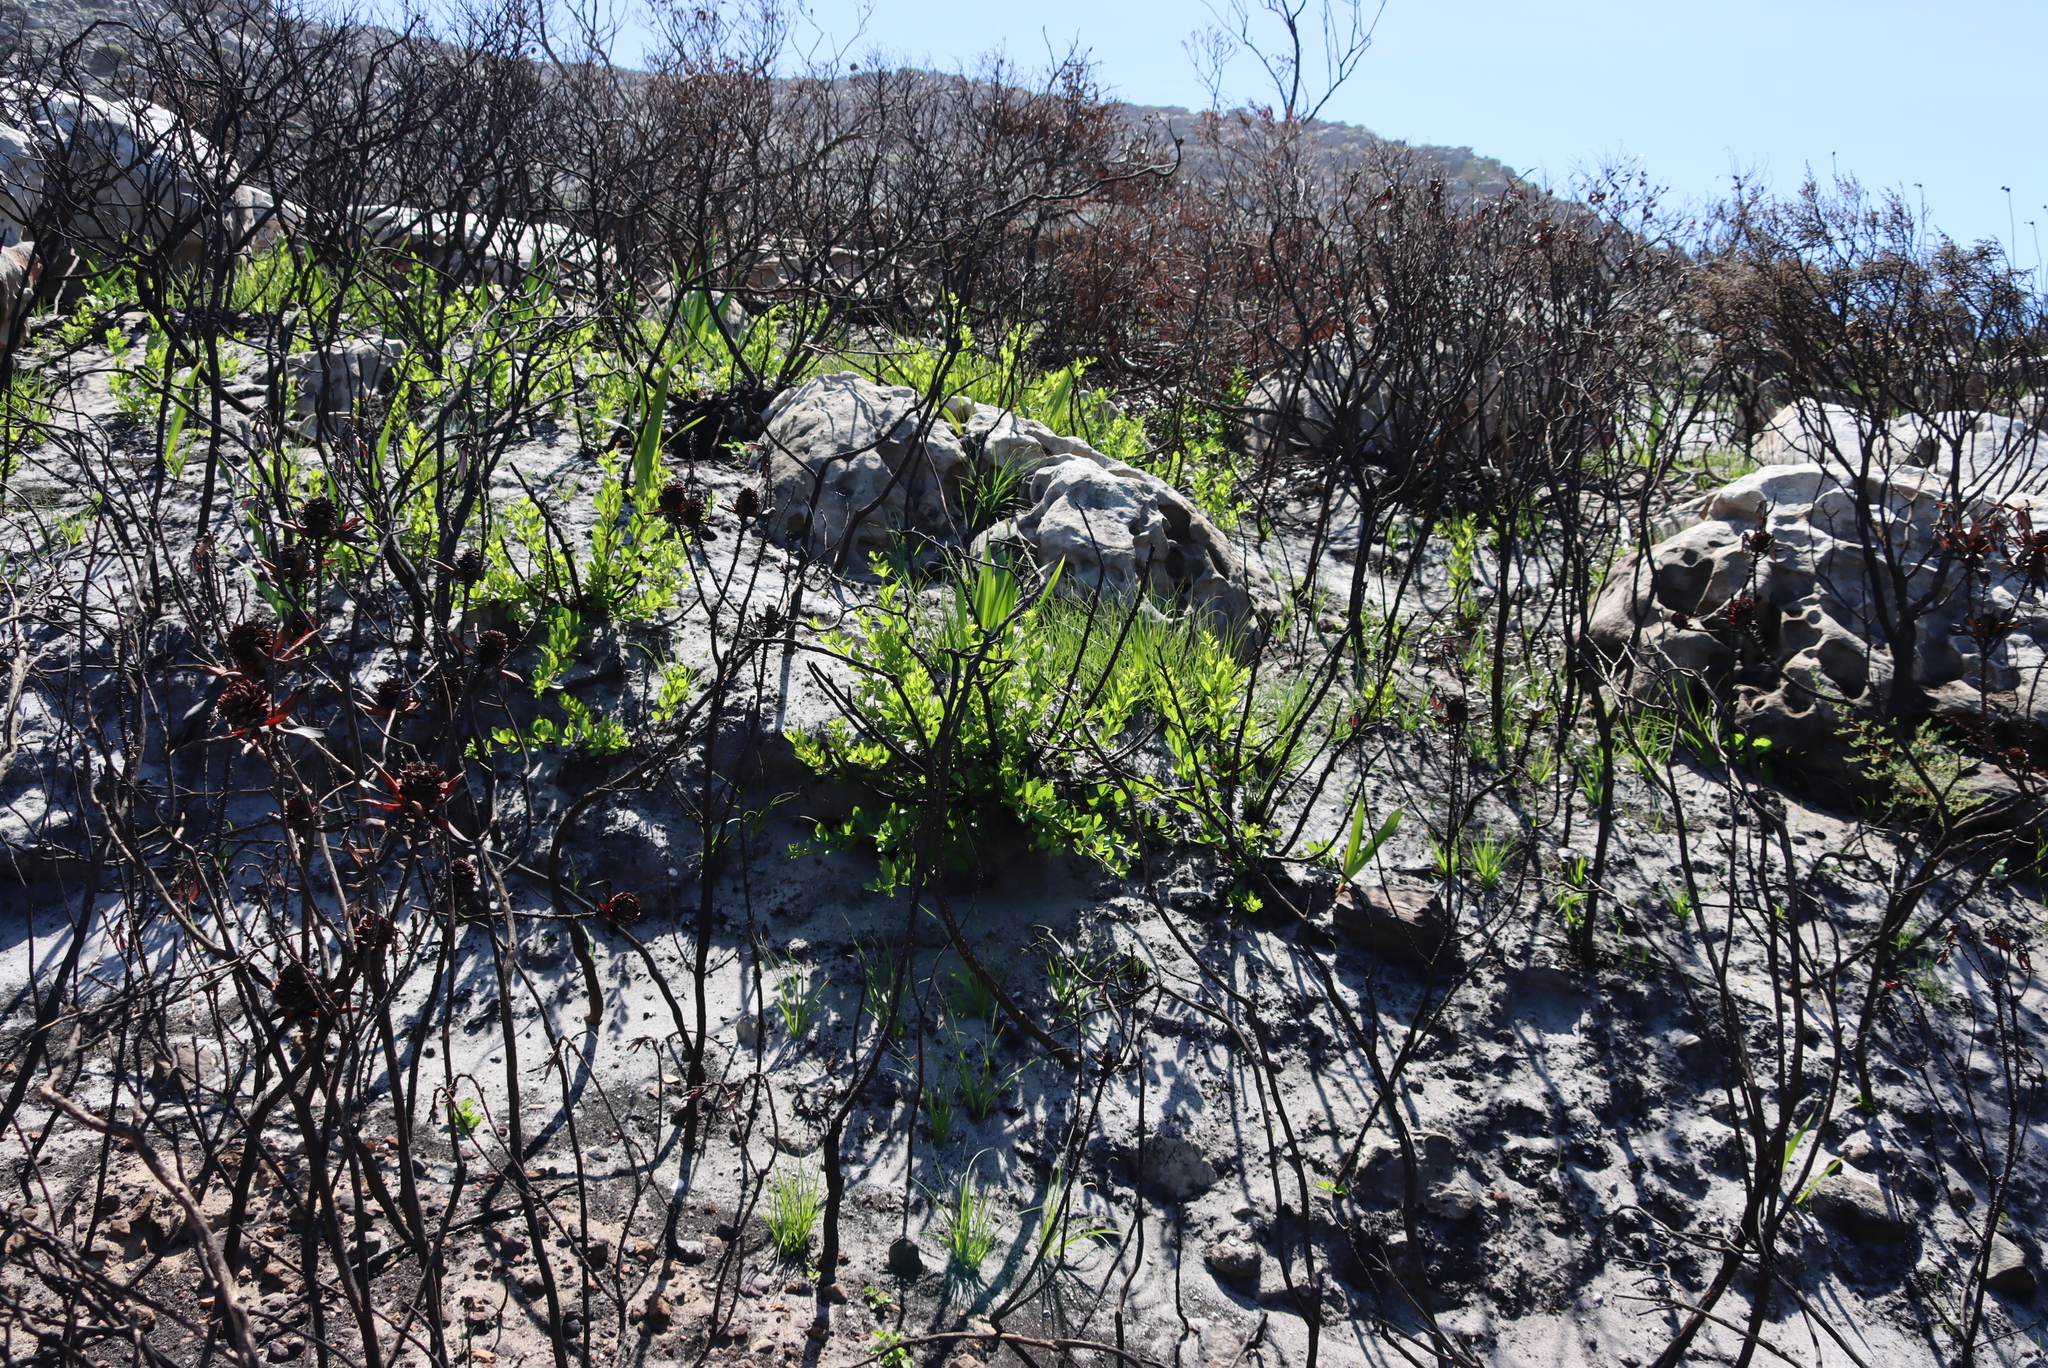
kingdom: Plantae
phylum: Tracheophyta
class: Magnoliopsida
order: Sapindales
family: Anacardiaceae
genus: Searsia
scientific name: Searsia laevigata
